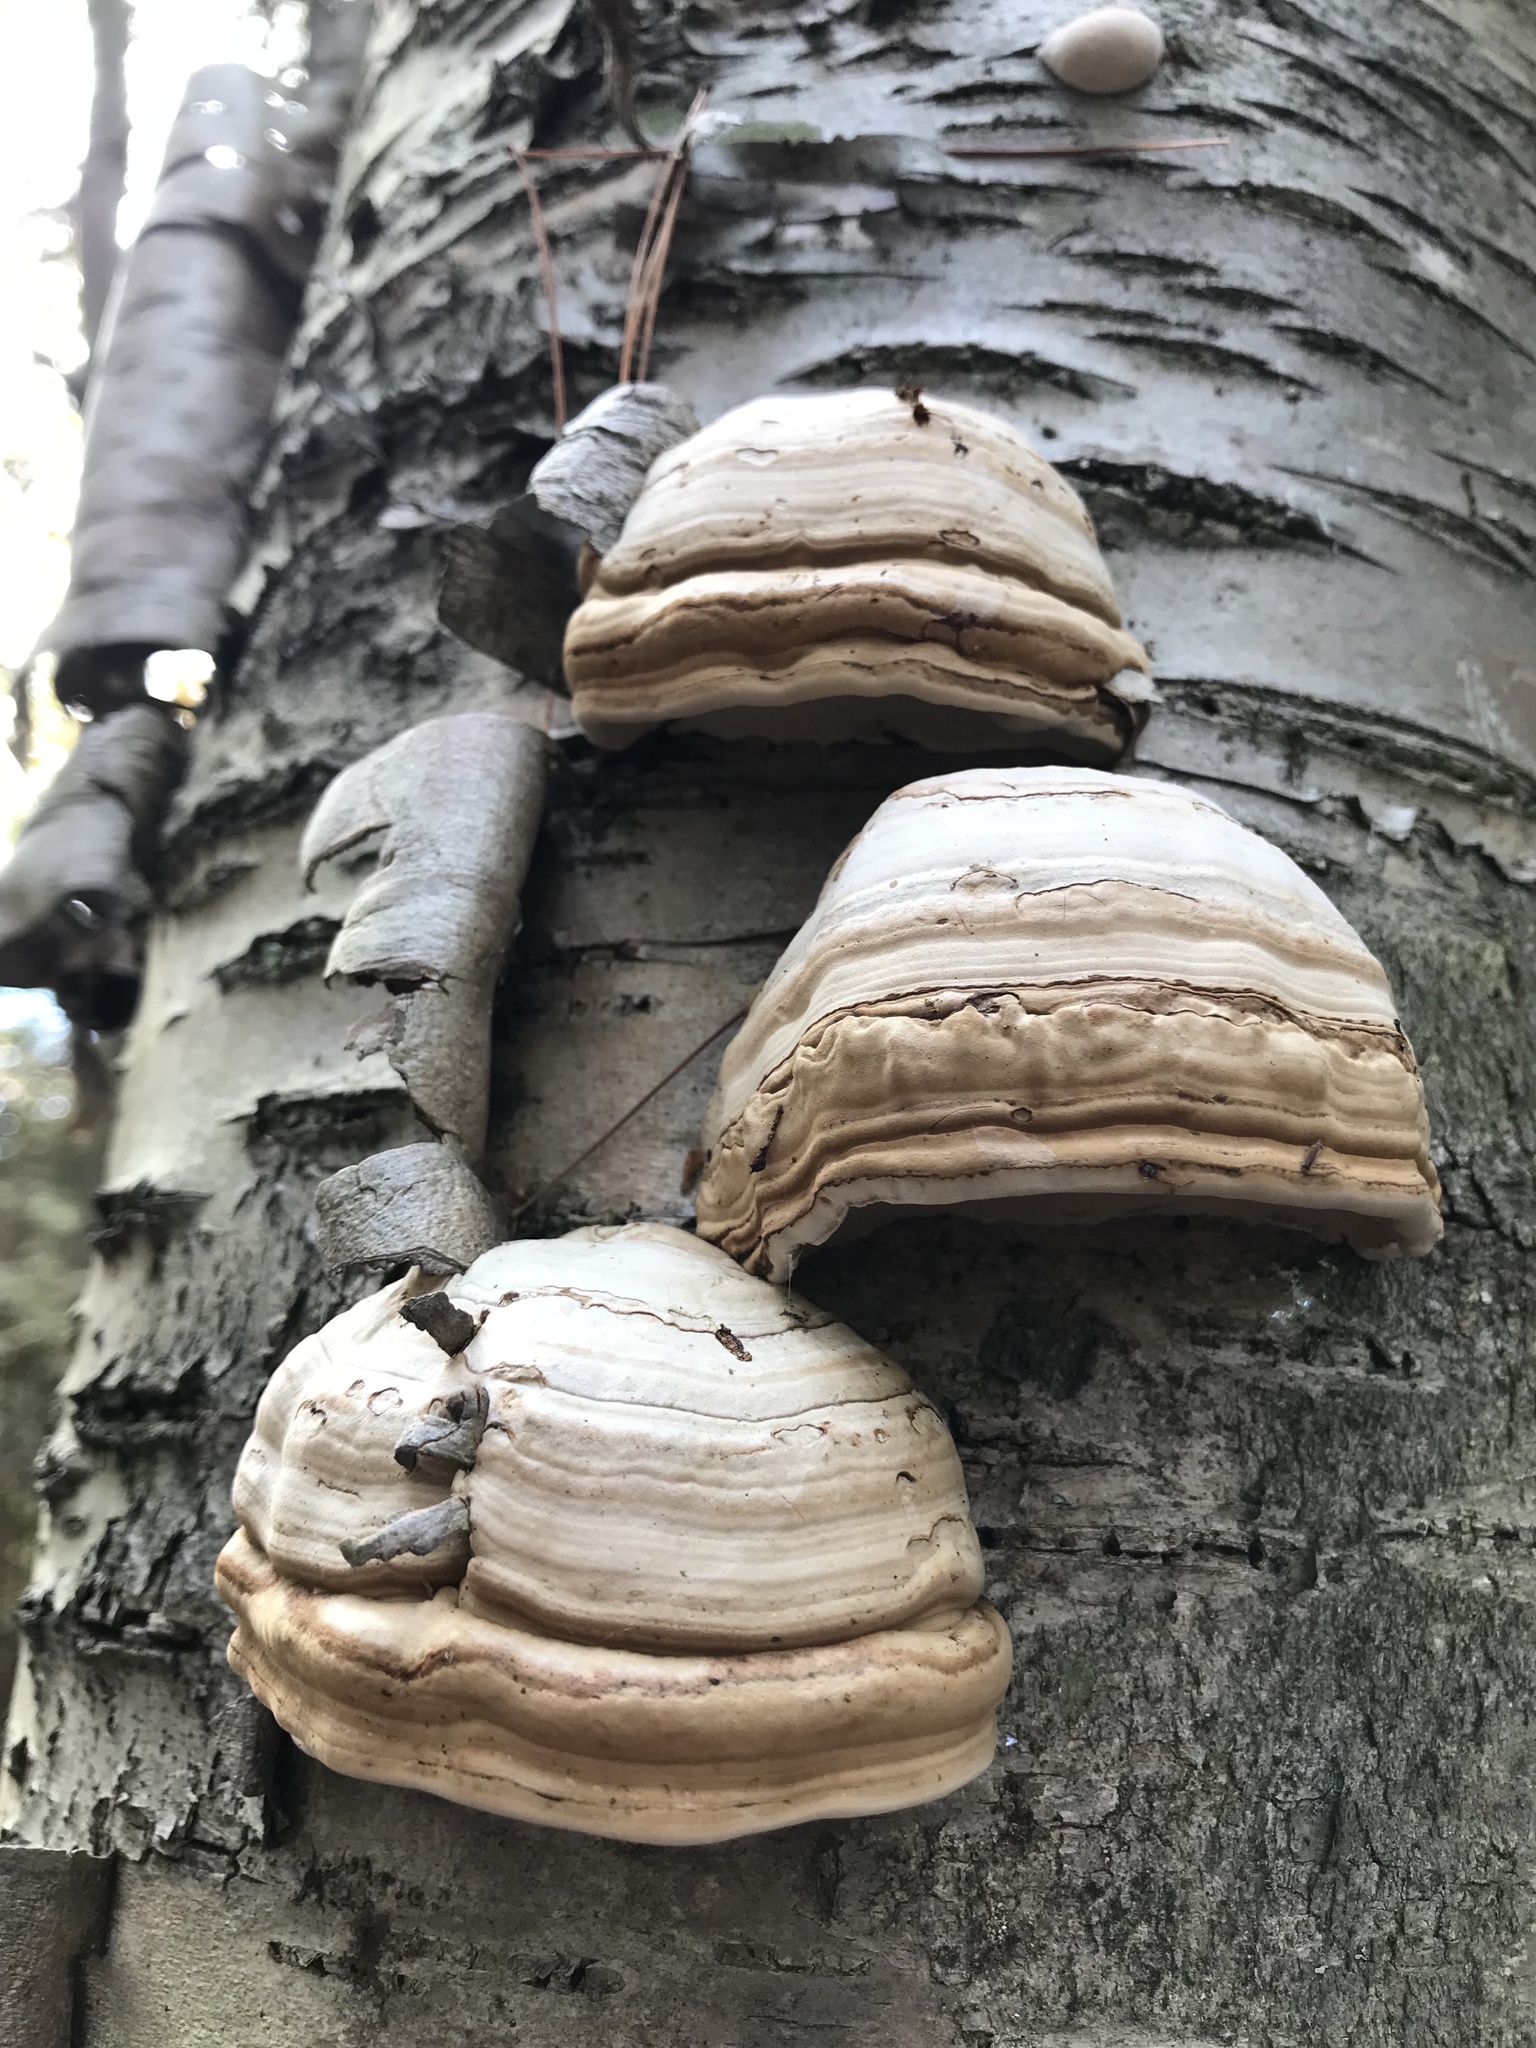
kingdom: Fungi
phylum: Basidiomycota
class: Agaricomycetes
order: Polyporales
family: Polyporaceae
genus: Fomes
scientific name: Fomes fomentarius
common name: Hoof fungus
